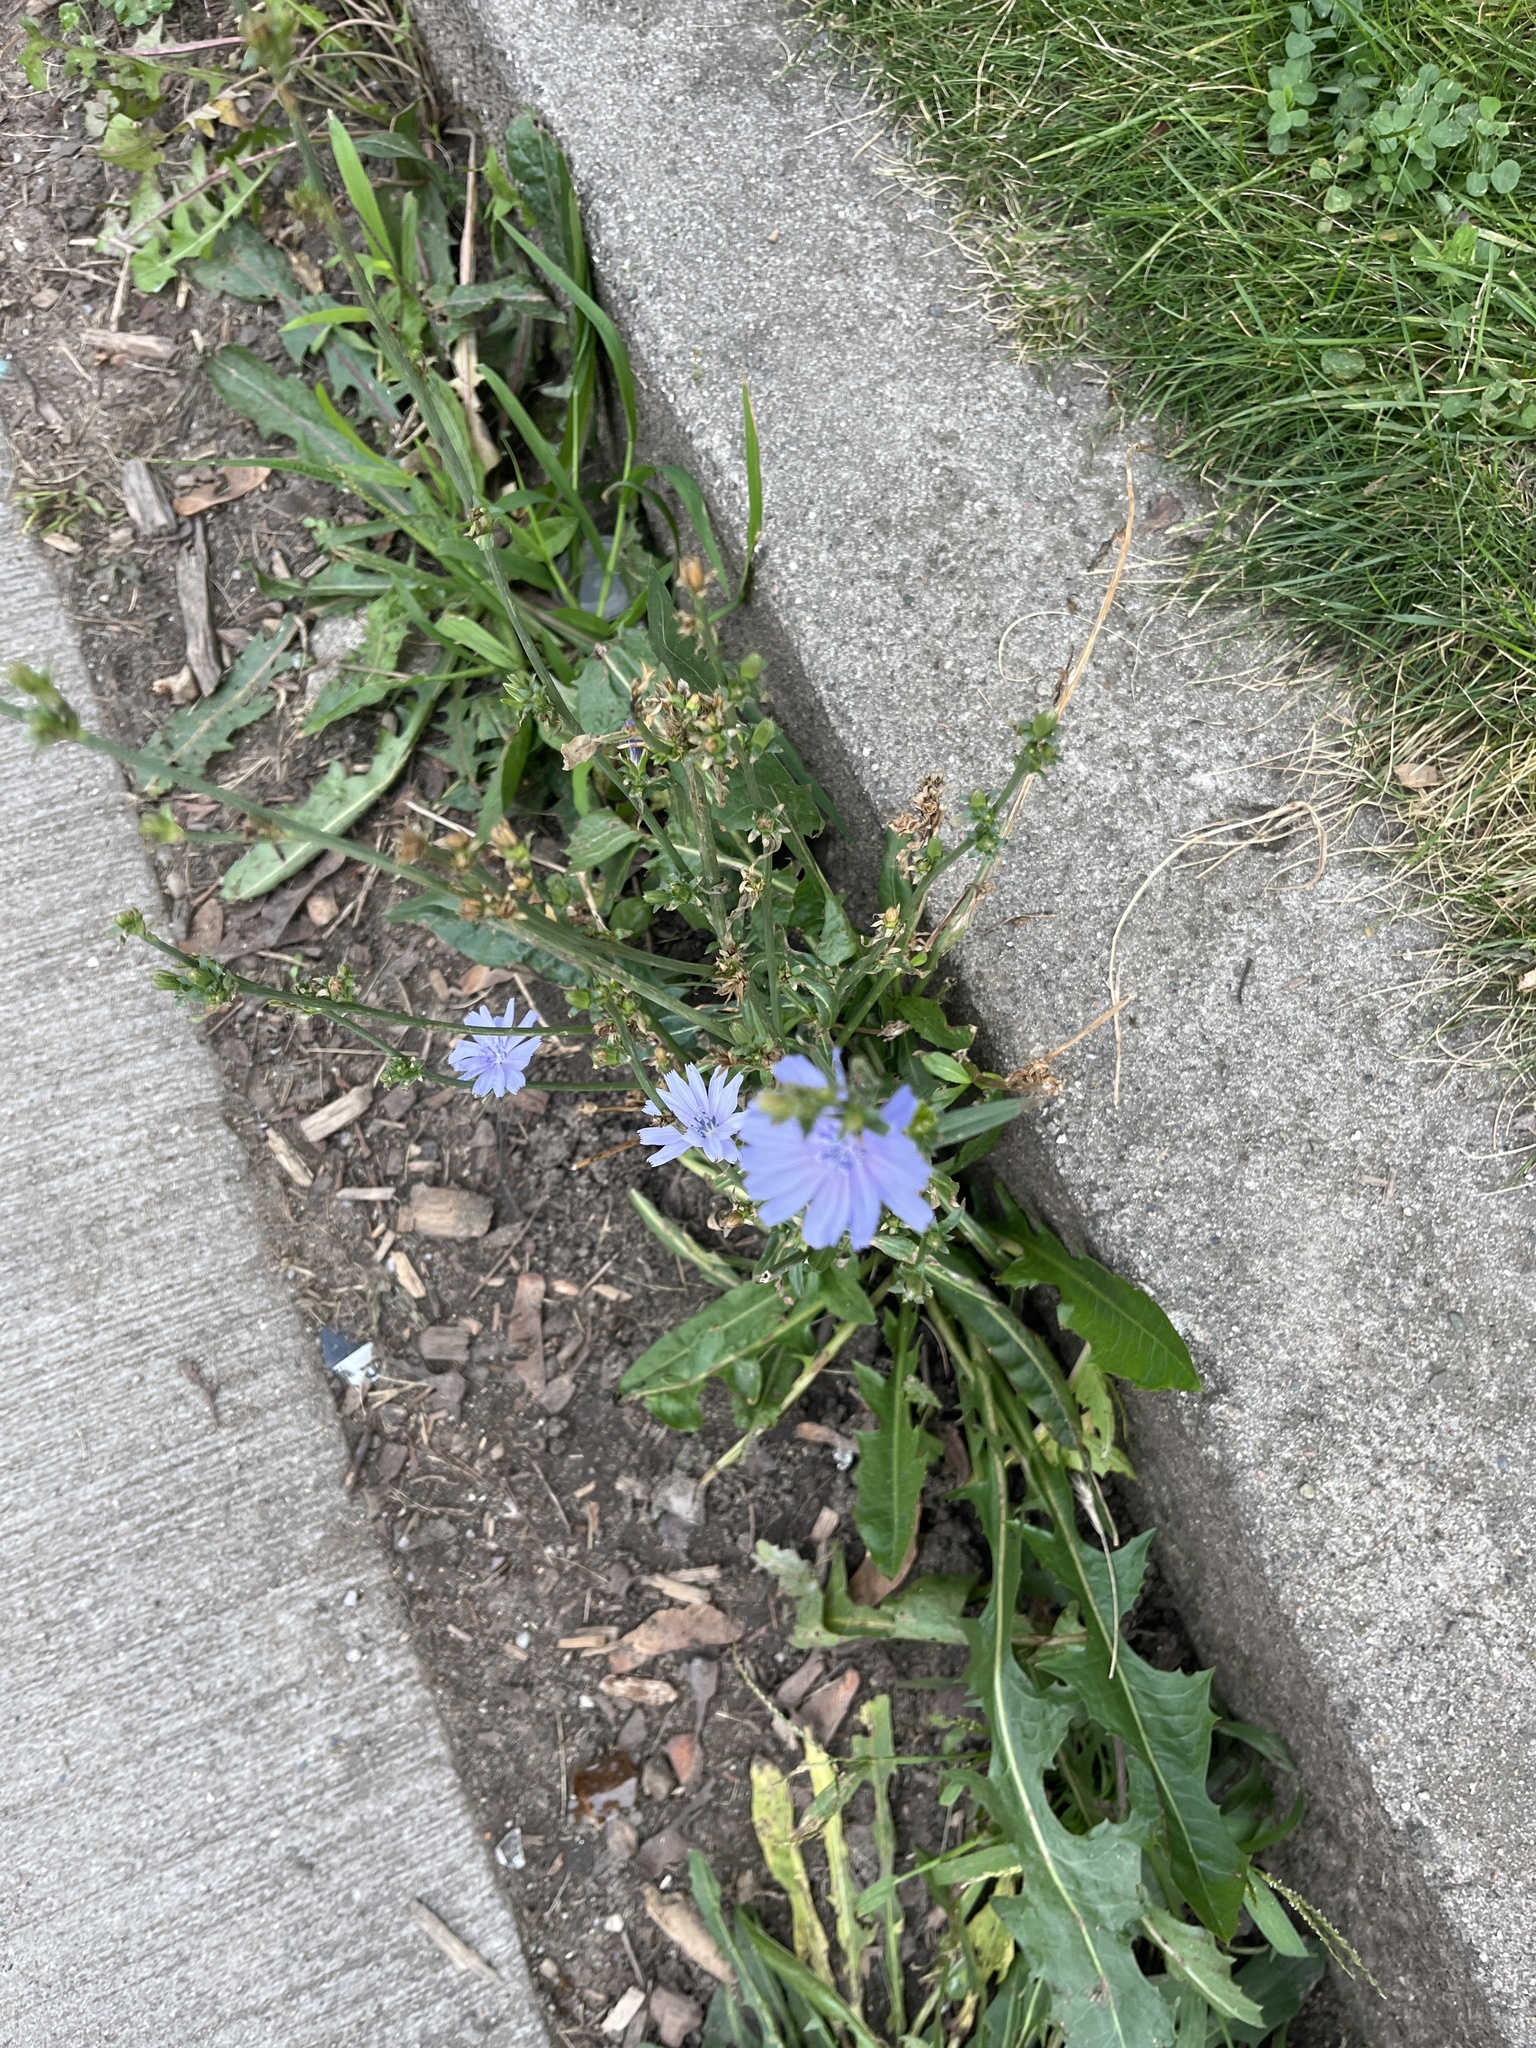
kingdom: Plantae
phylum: Tracheophyta
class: Magnoliopsida
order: Asterales
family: Asteraceae
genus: Cichorium
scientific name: Cichorium intybus
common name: Chicory
